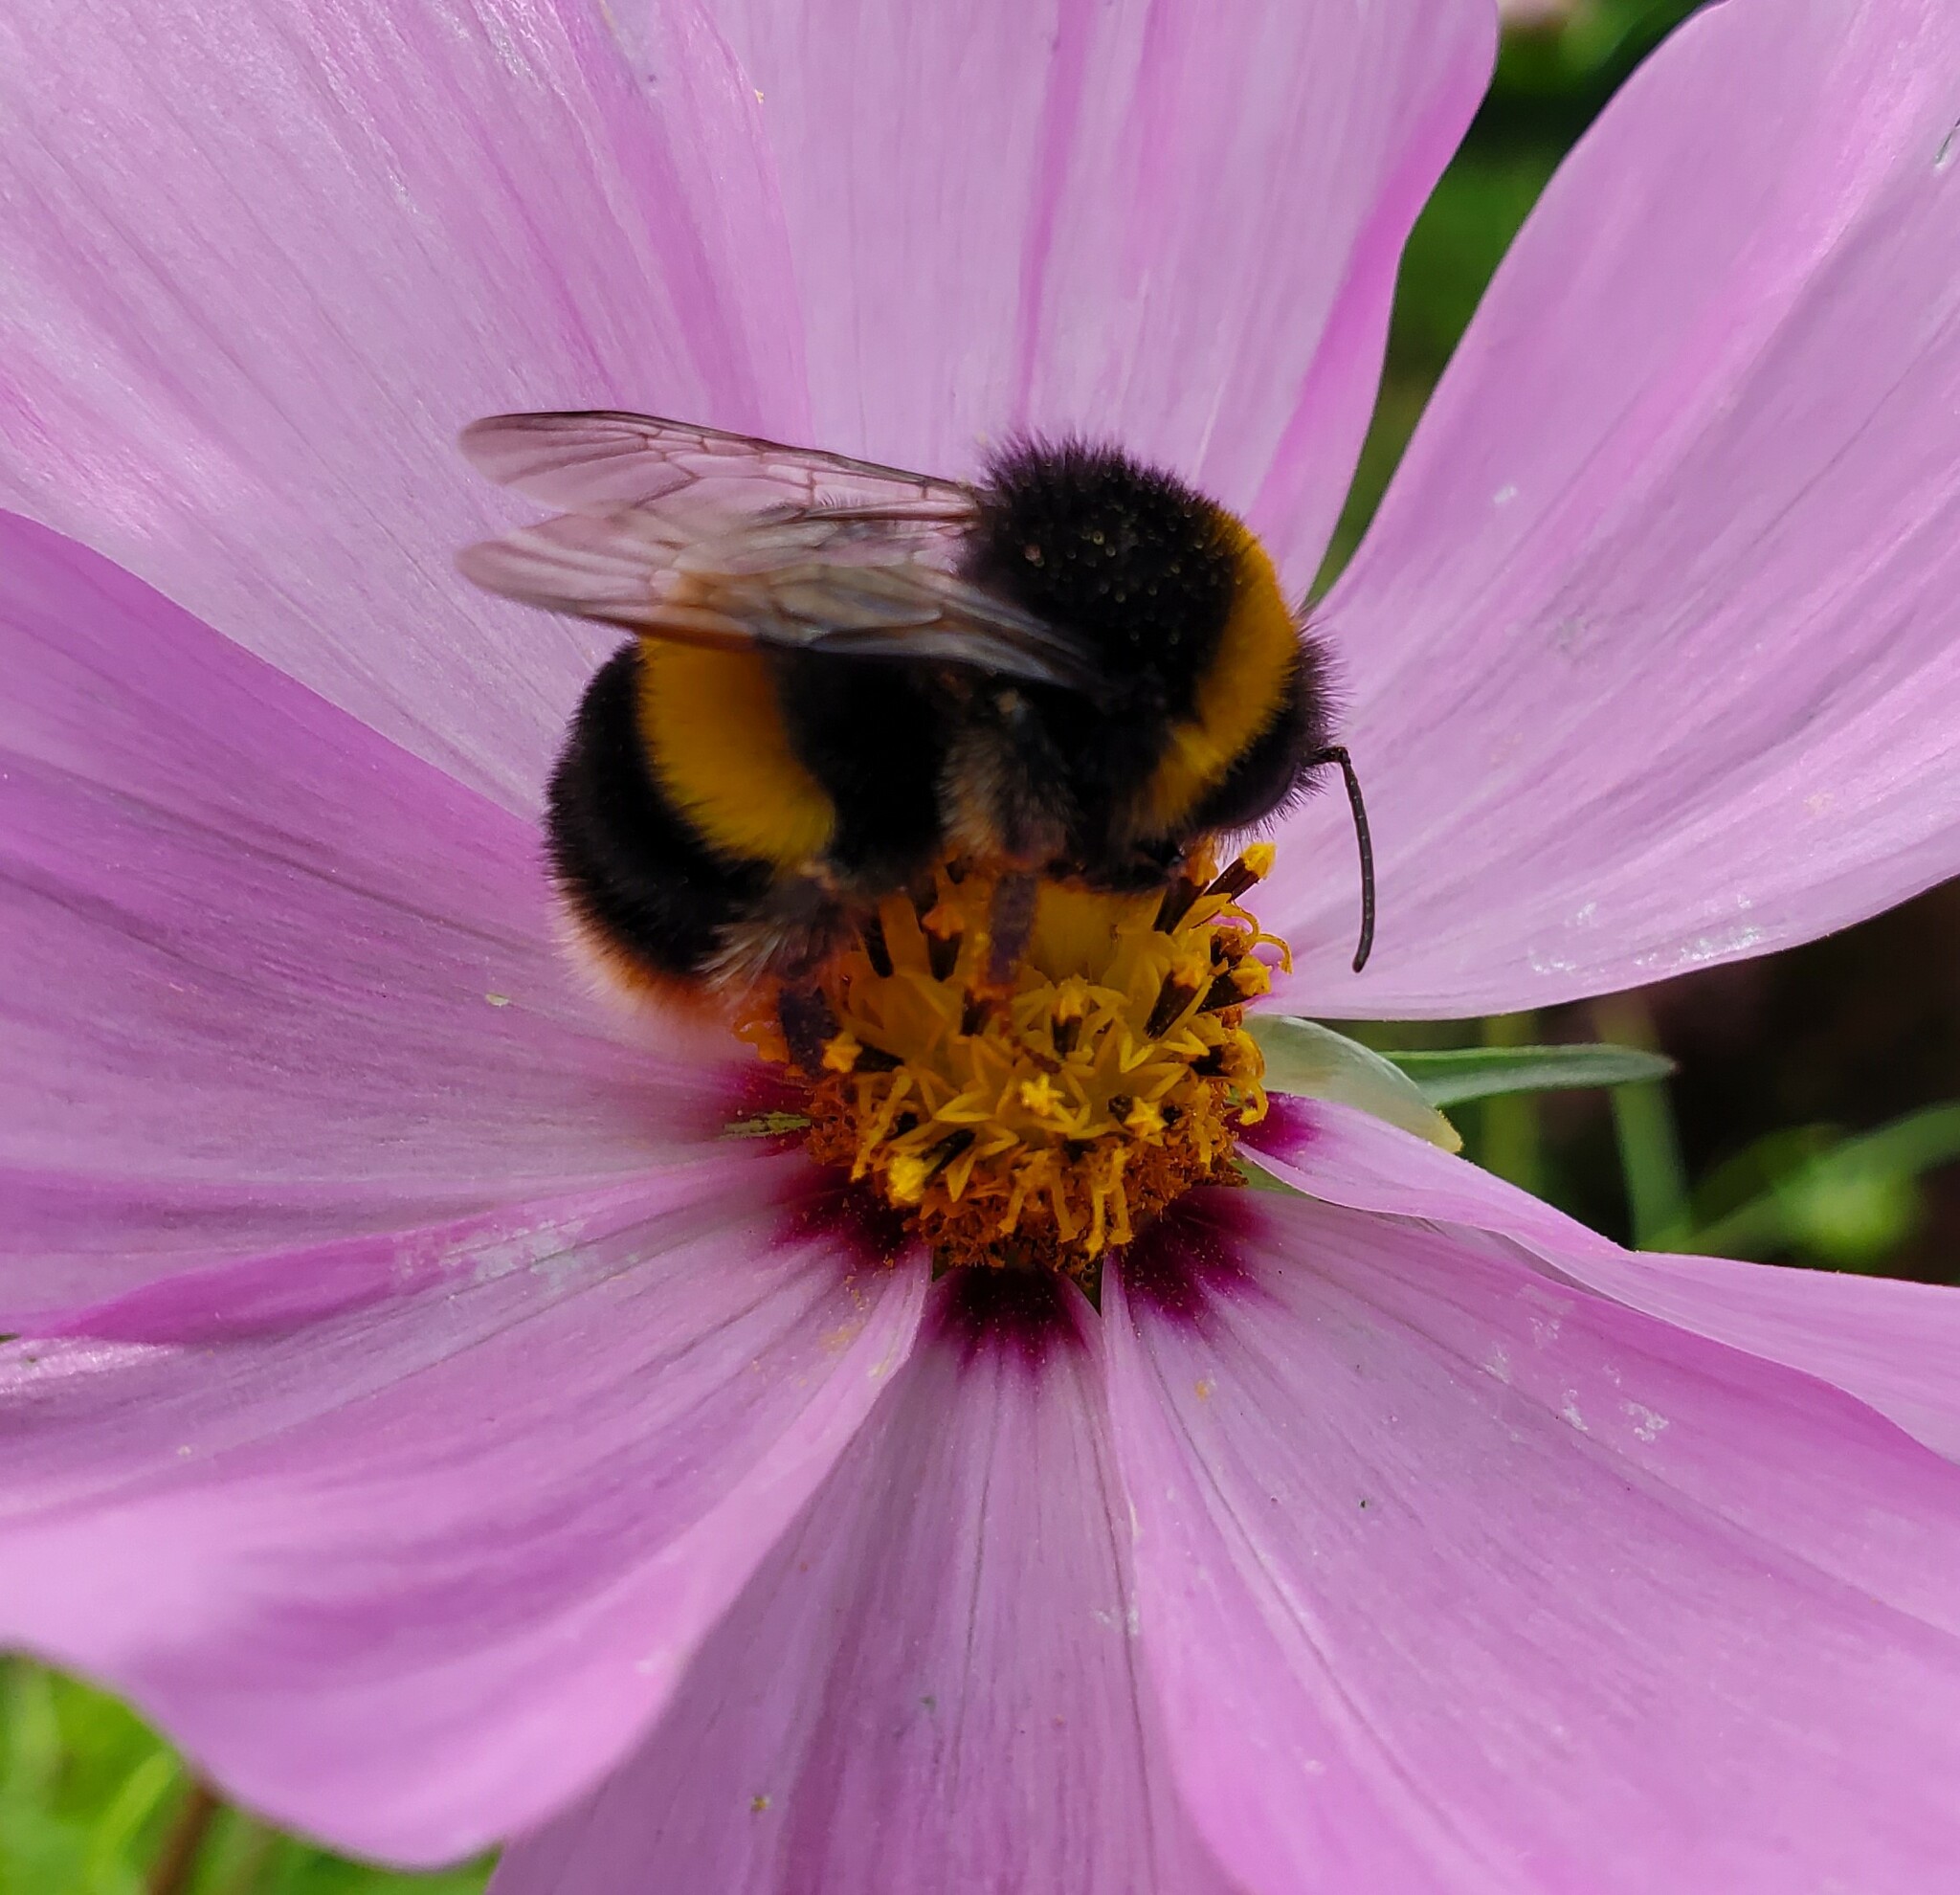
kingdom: Animalia
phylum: Arthropoda
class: Insecta
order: Hymenoptera
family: Apidae
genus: Bombus
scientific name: Bombus terrestris
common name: Buff-tailed bumblebee
